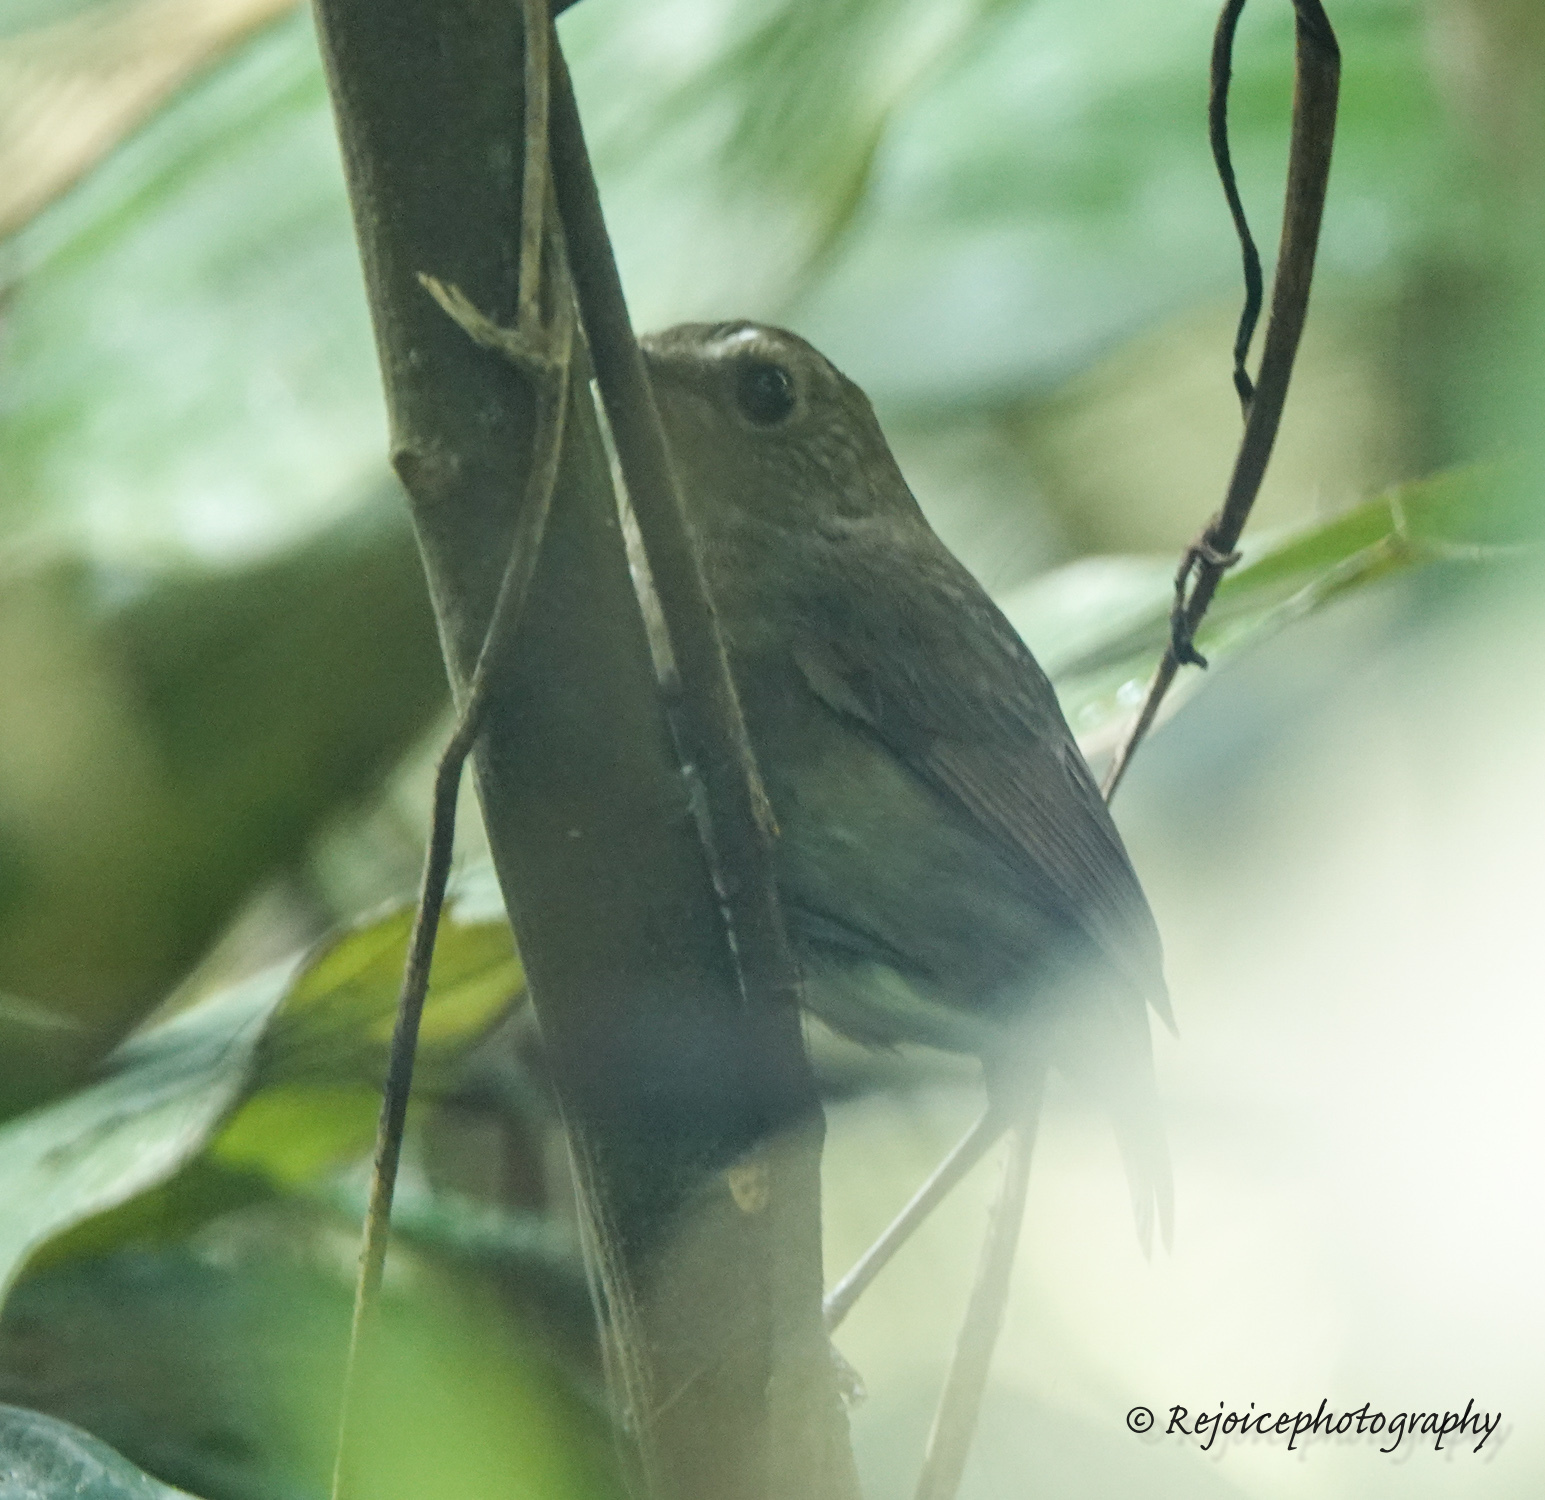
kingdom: Animalia
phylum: Chordata
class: Aves
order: Passeriformes
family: Muscicapidae
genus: Brachypteryx
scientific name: Brachypteryx leucophris
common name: Lesser shortwing
